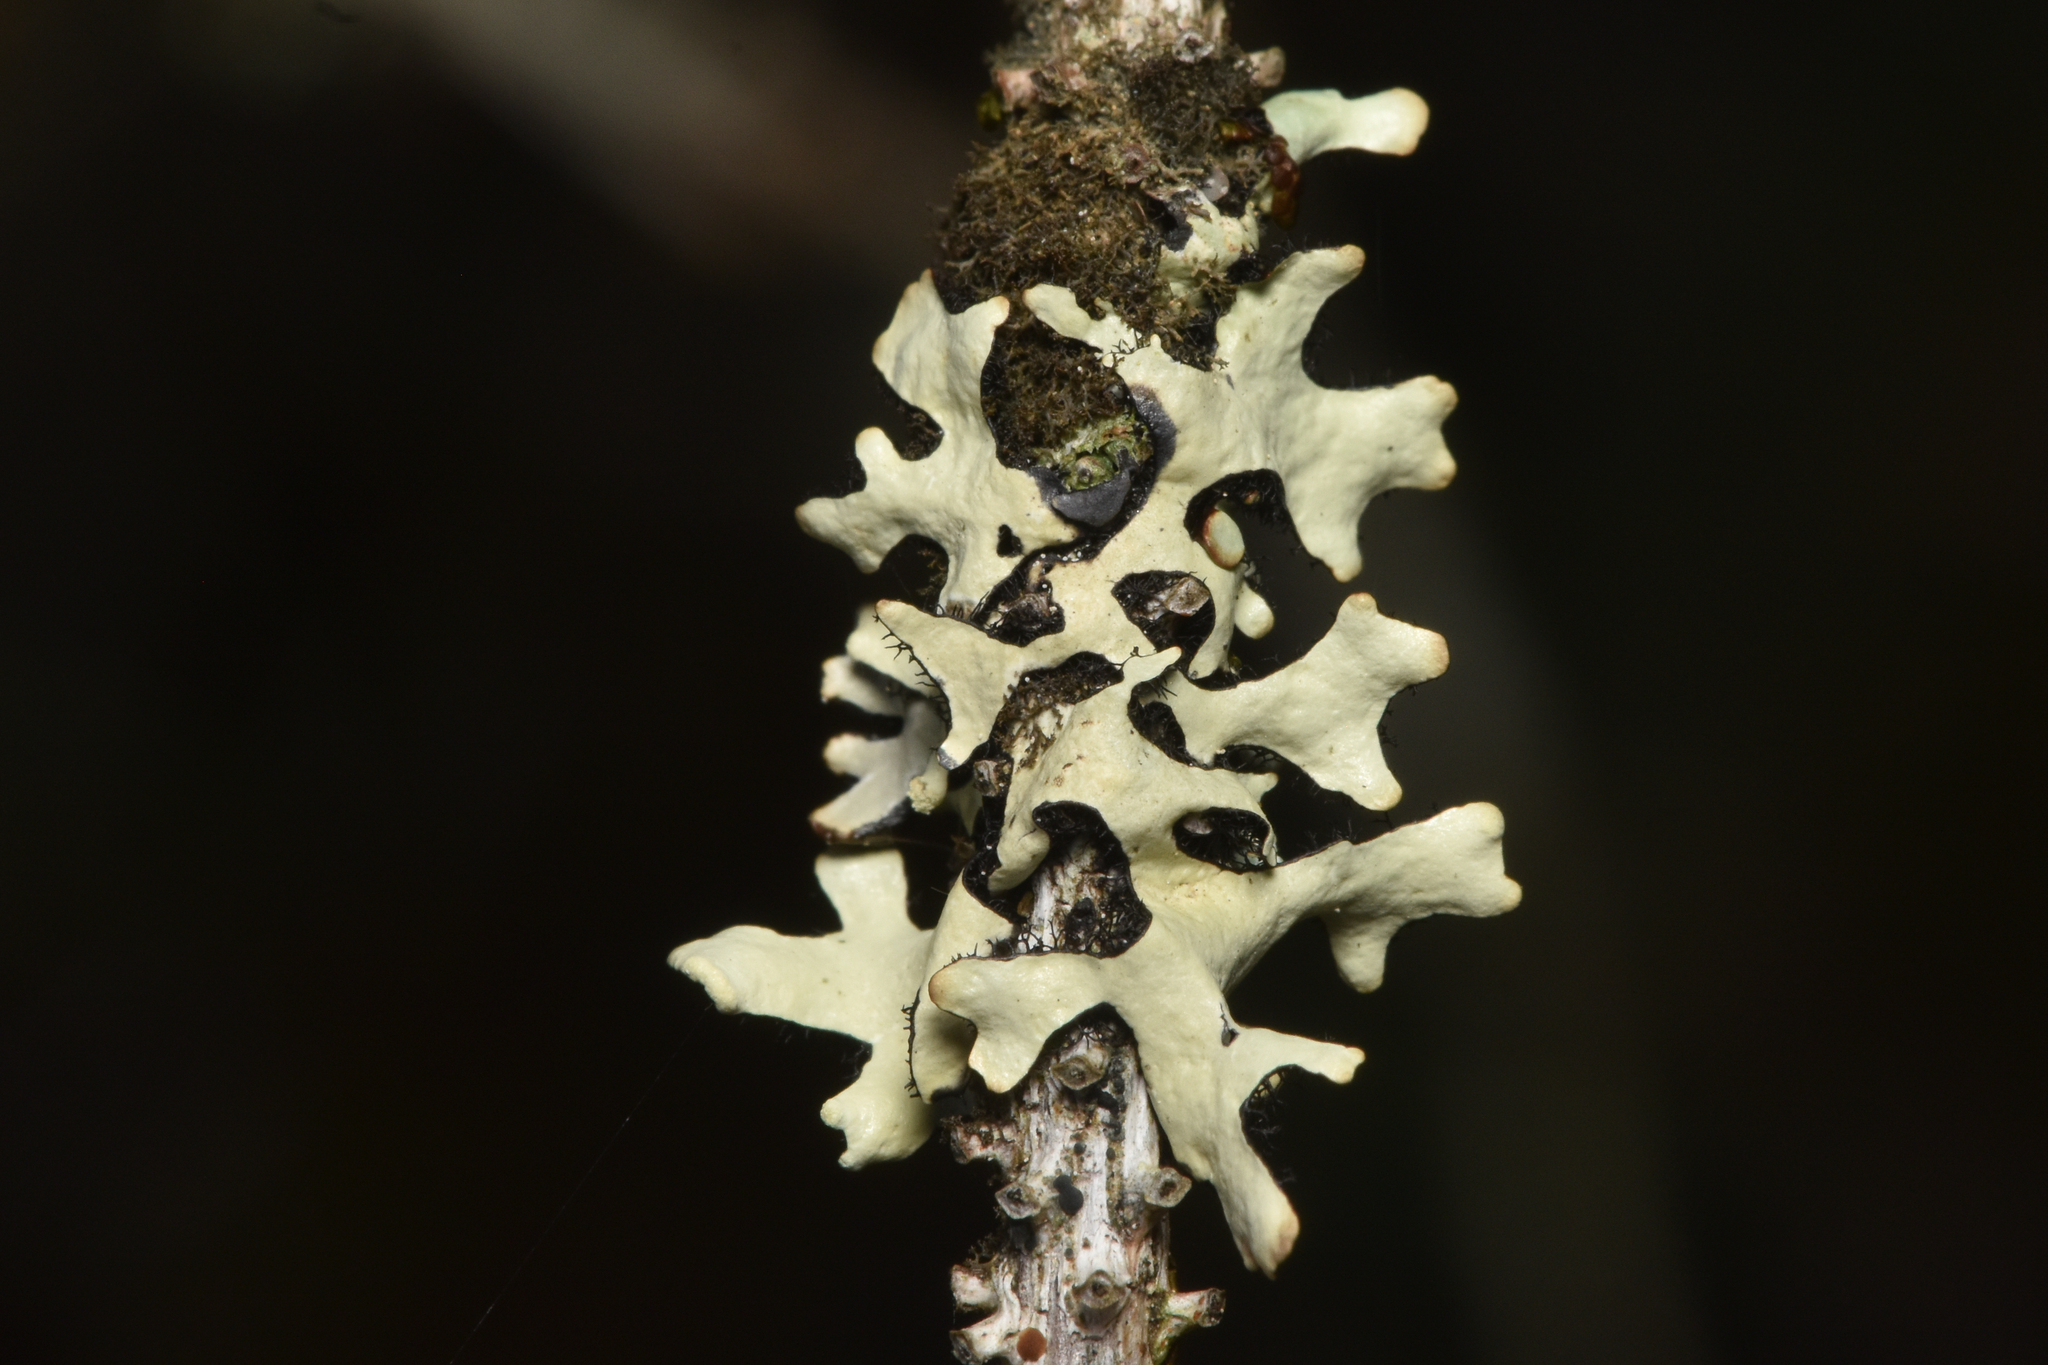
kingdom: Fungi
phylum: Ascomycota
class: Lecanoromycetes
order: Lecanorales
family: Parmeliaceae
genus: Hypotrachyna
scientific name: Hypotrachyna sinuosa
